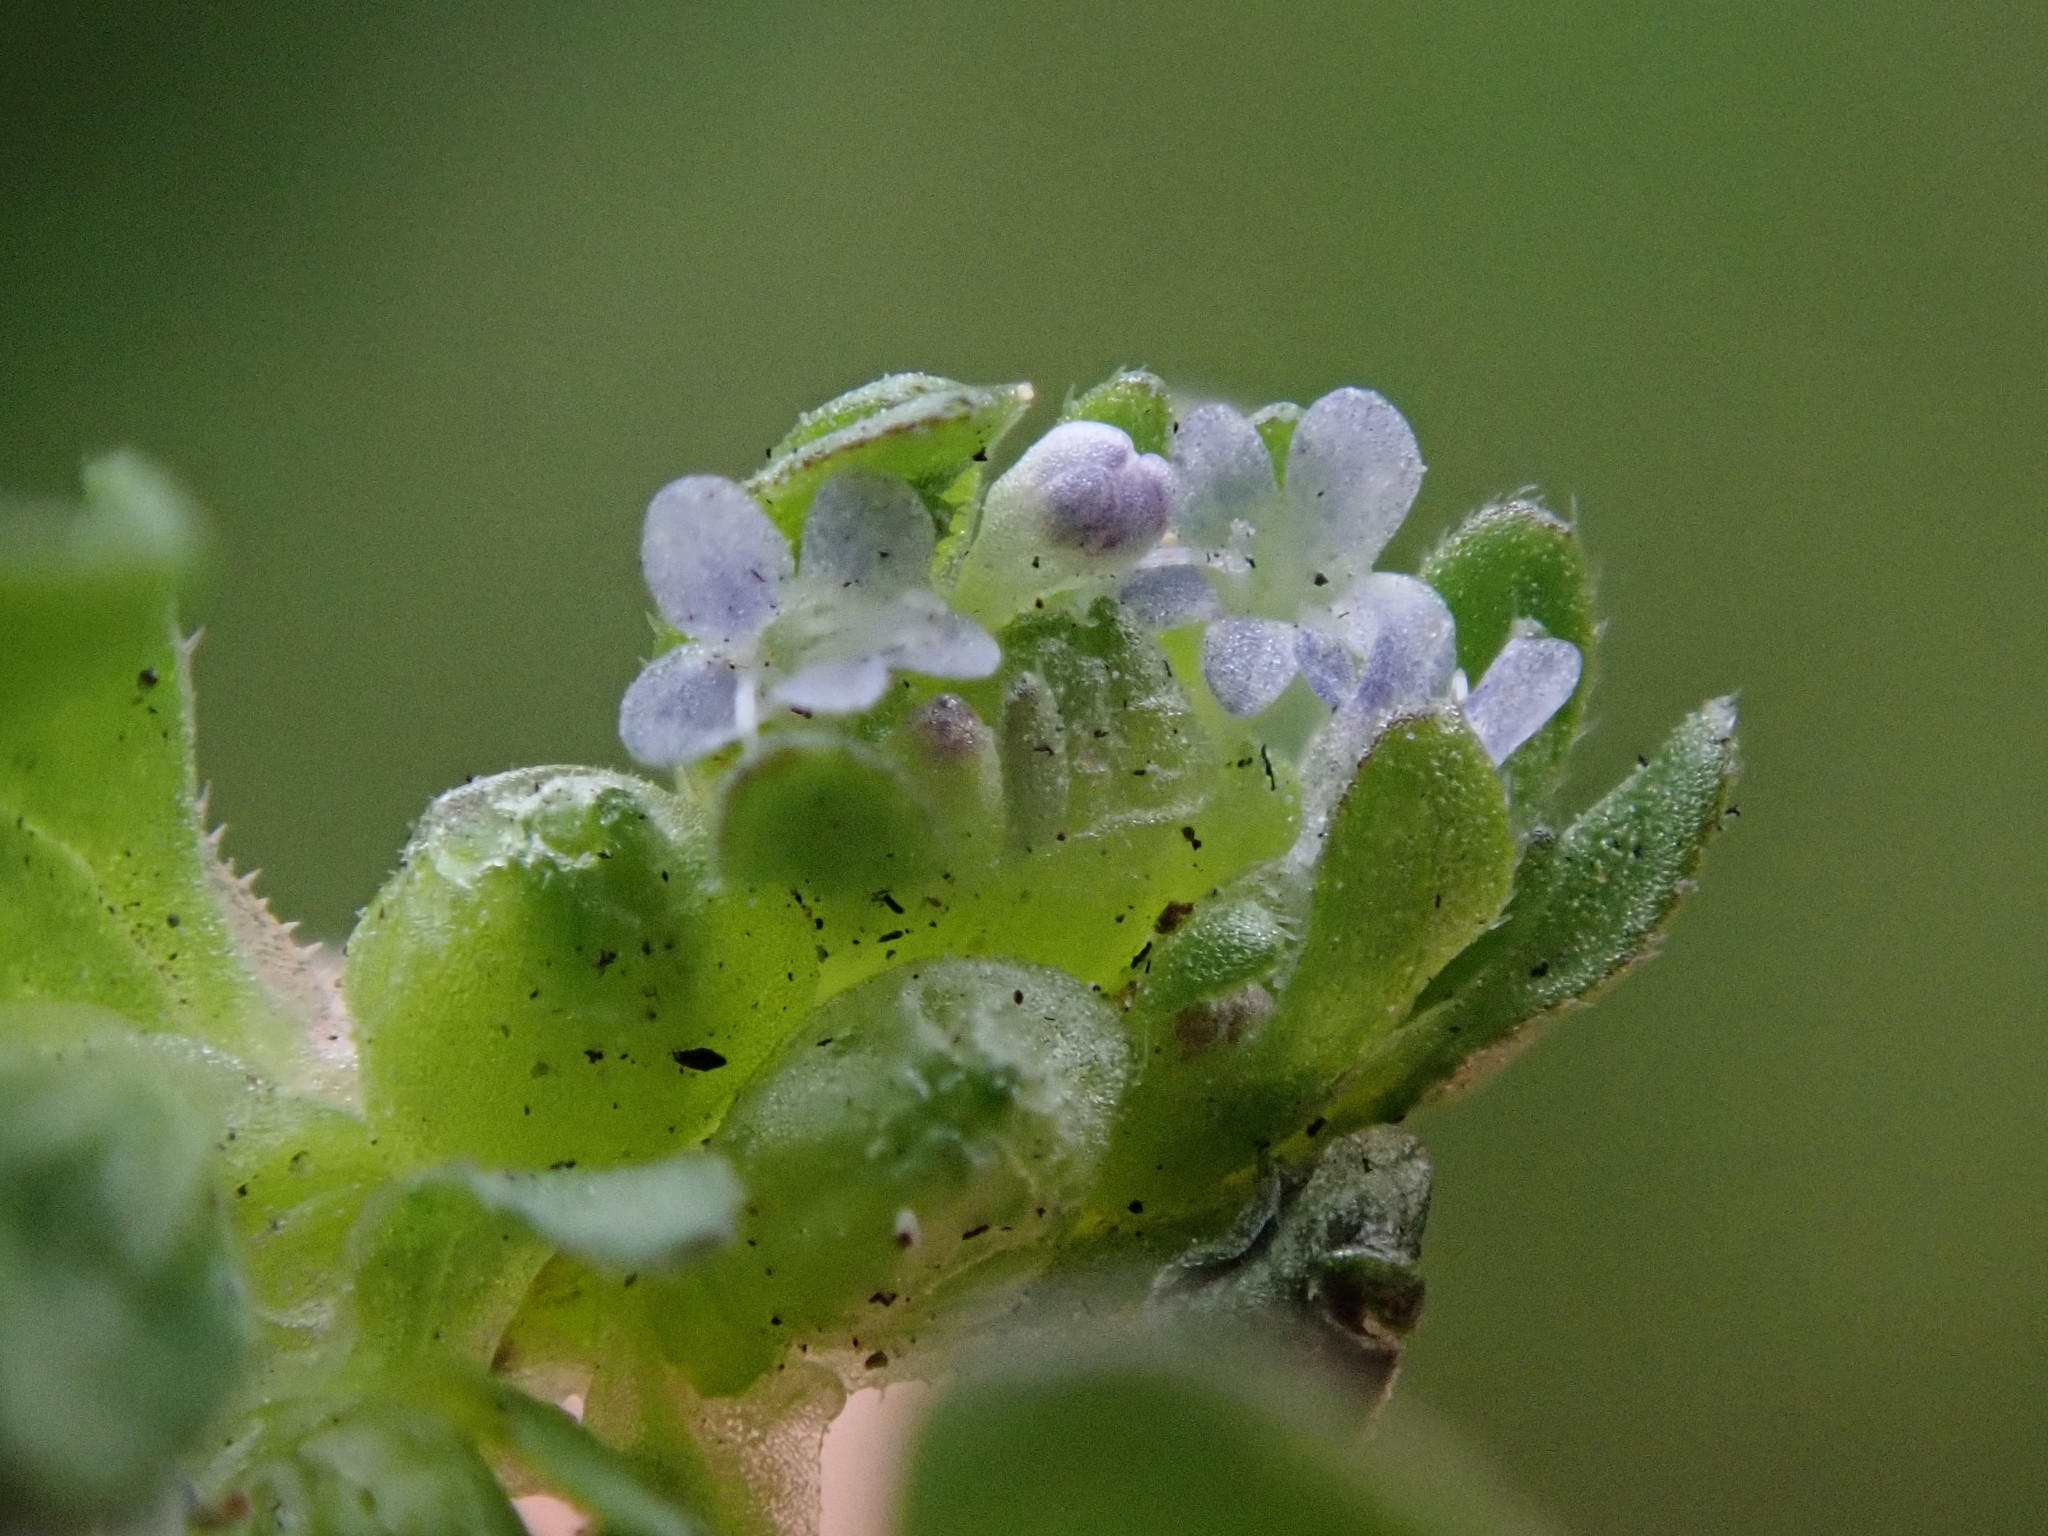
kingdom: Plantae
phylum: Tracheophyta
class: Magnoliopsida
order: Dipsacales
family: Caprifoliaceae
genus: Valerianella
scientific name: Valerianella locusta
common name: Common cornsalad
